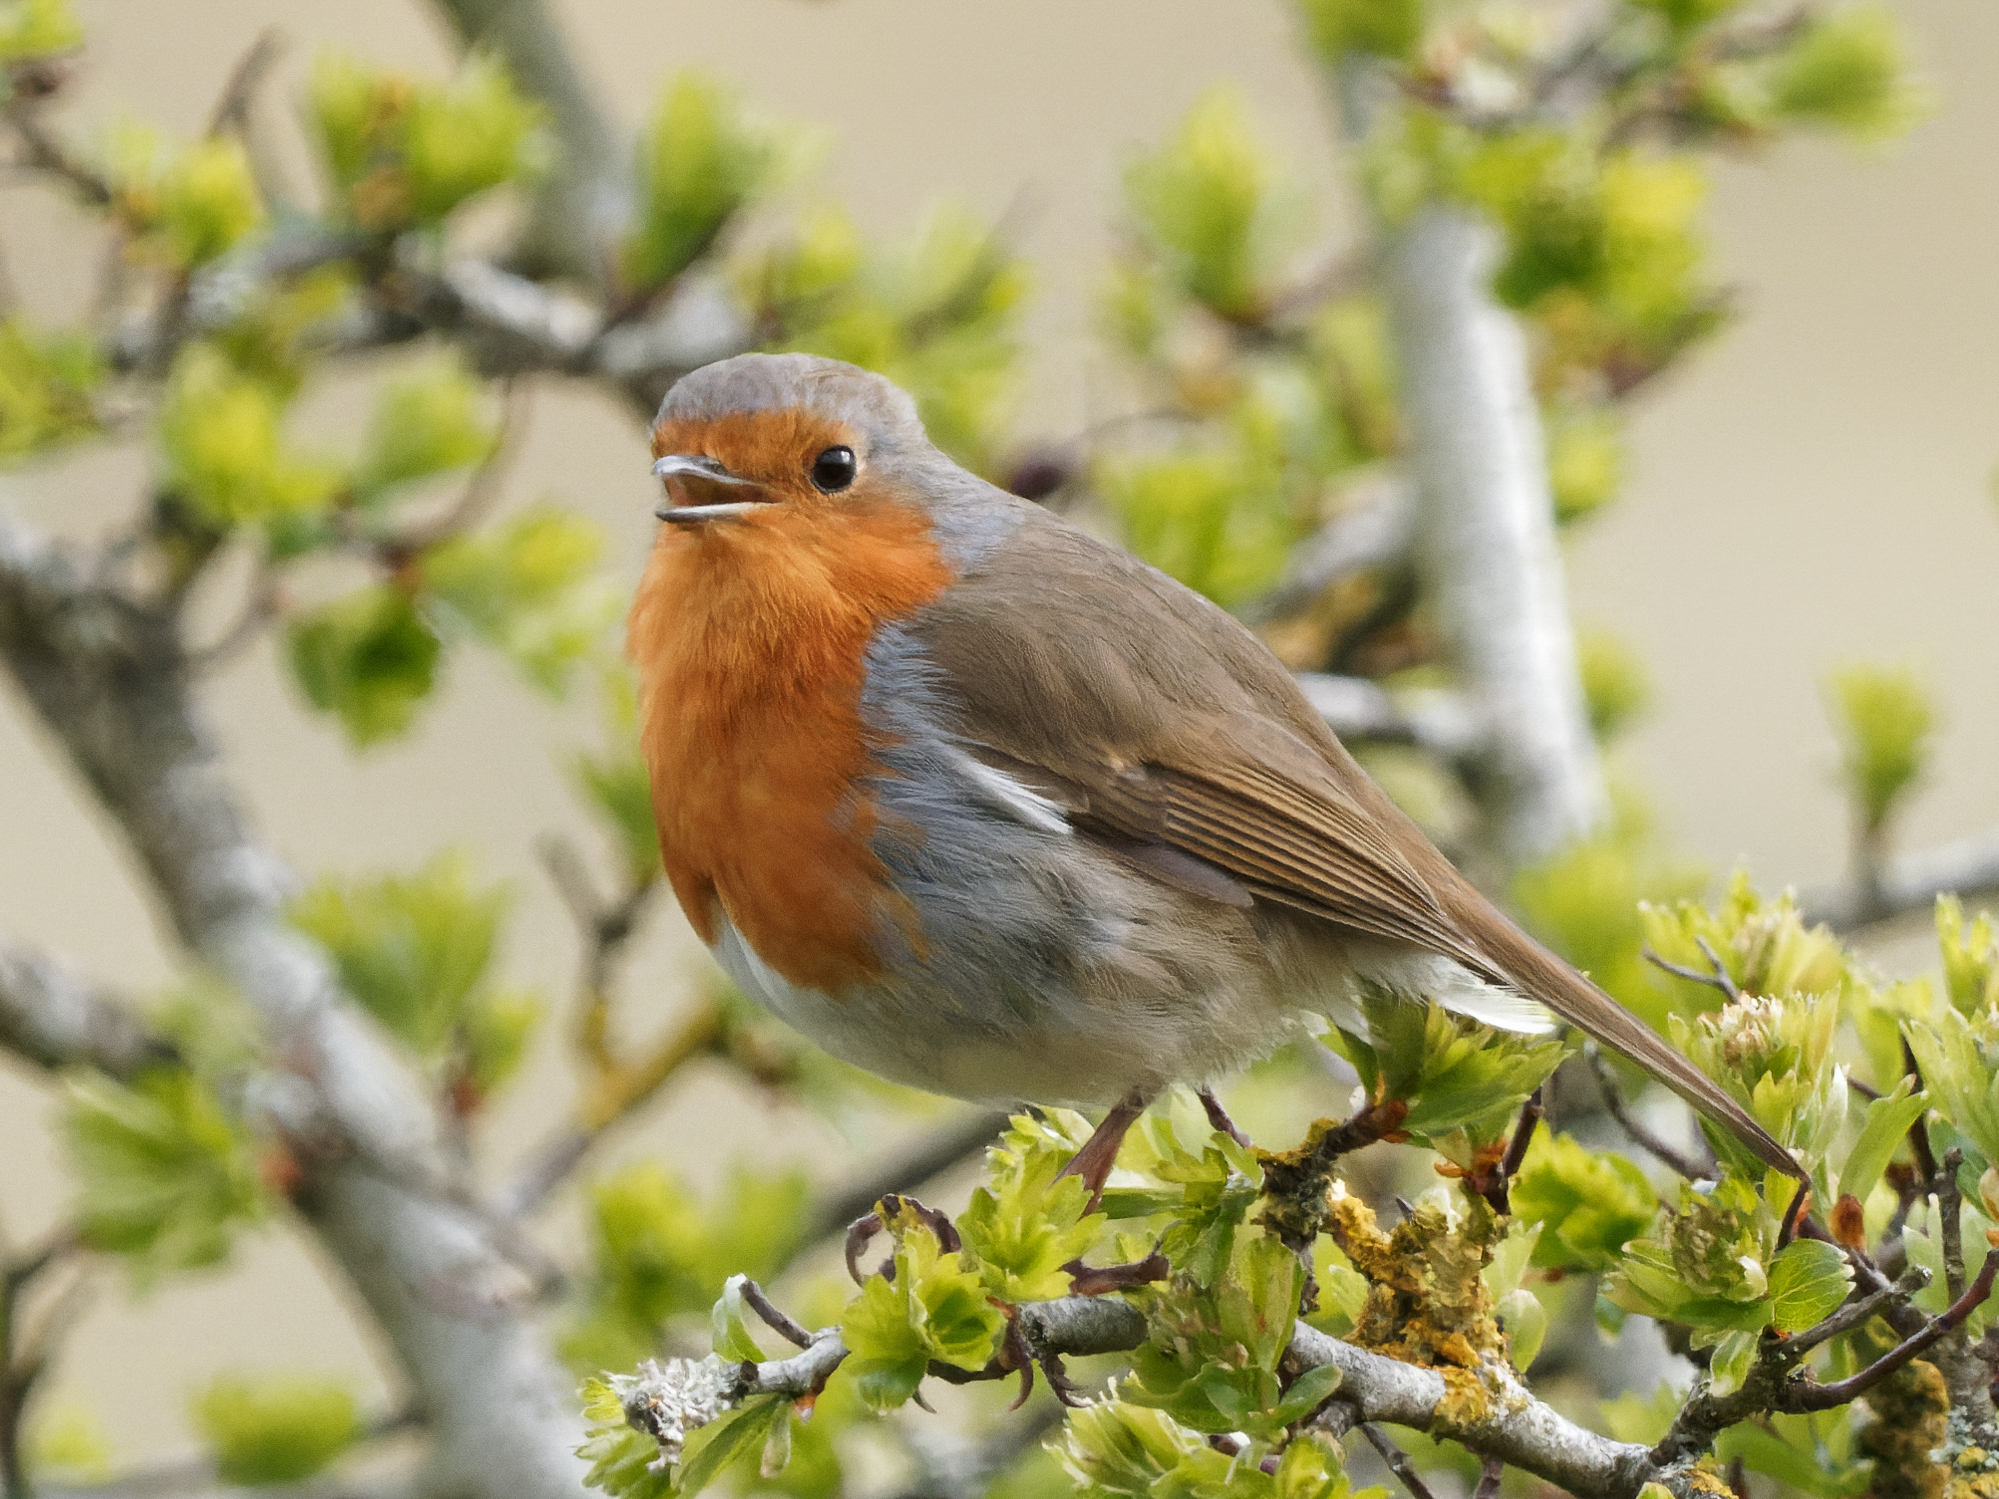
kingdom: Animalia
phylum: Chordata
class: Aves
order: Passeriformes
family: Muscicapidae
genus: Erithacus
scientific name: Erithacus rubecula
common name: European robin
